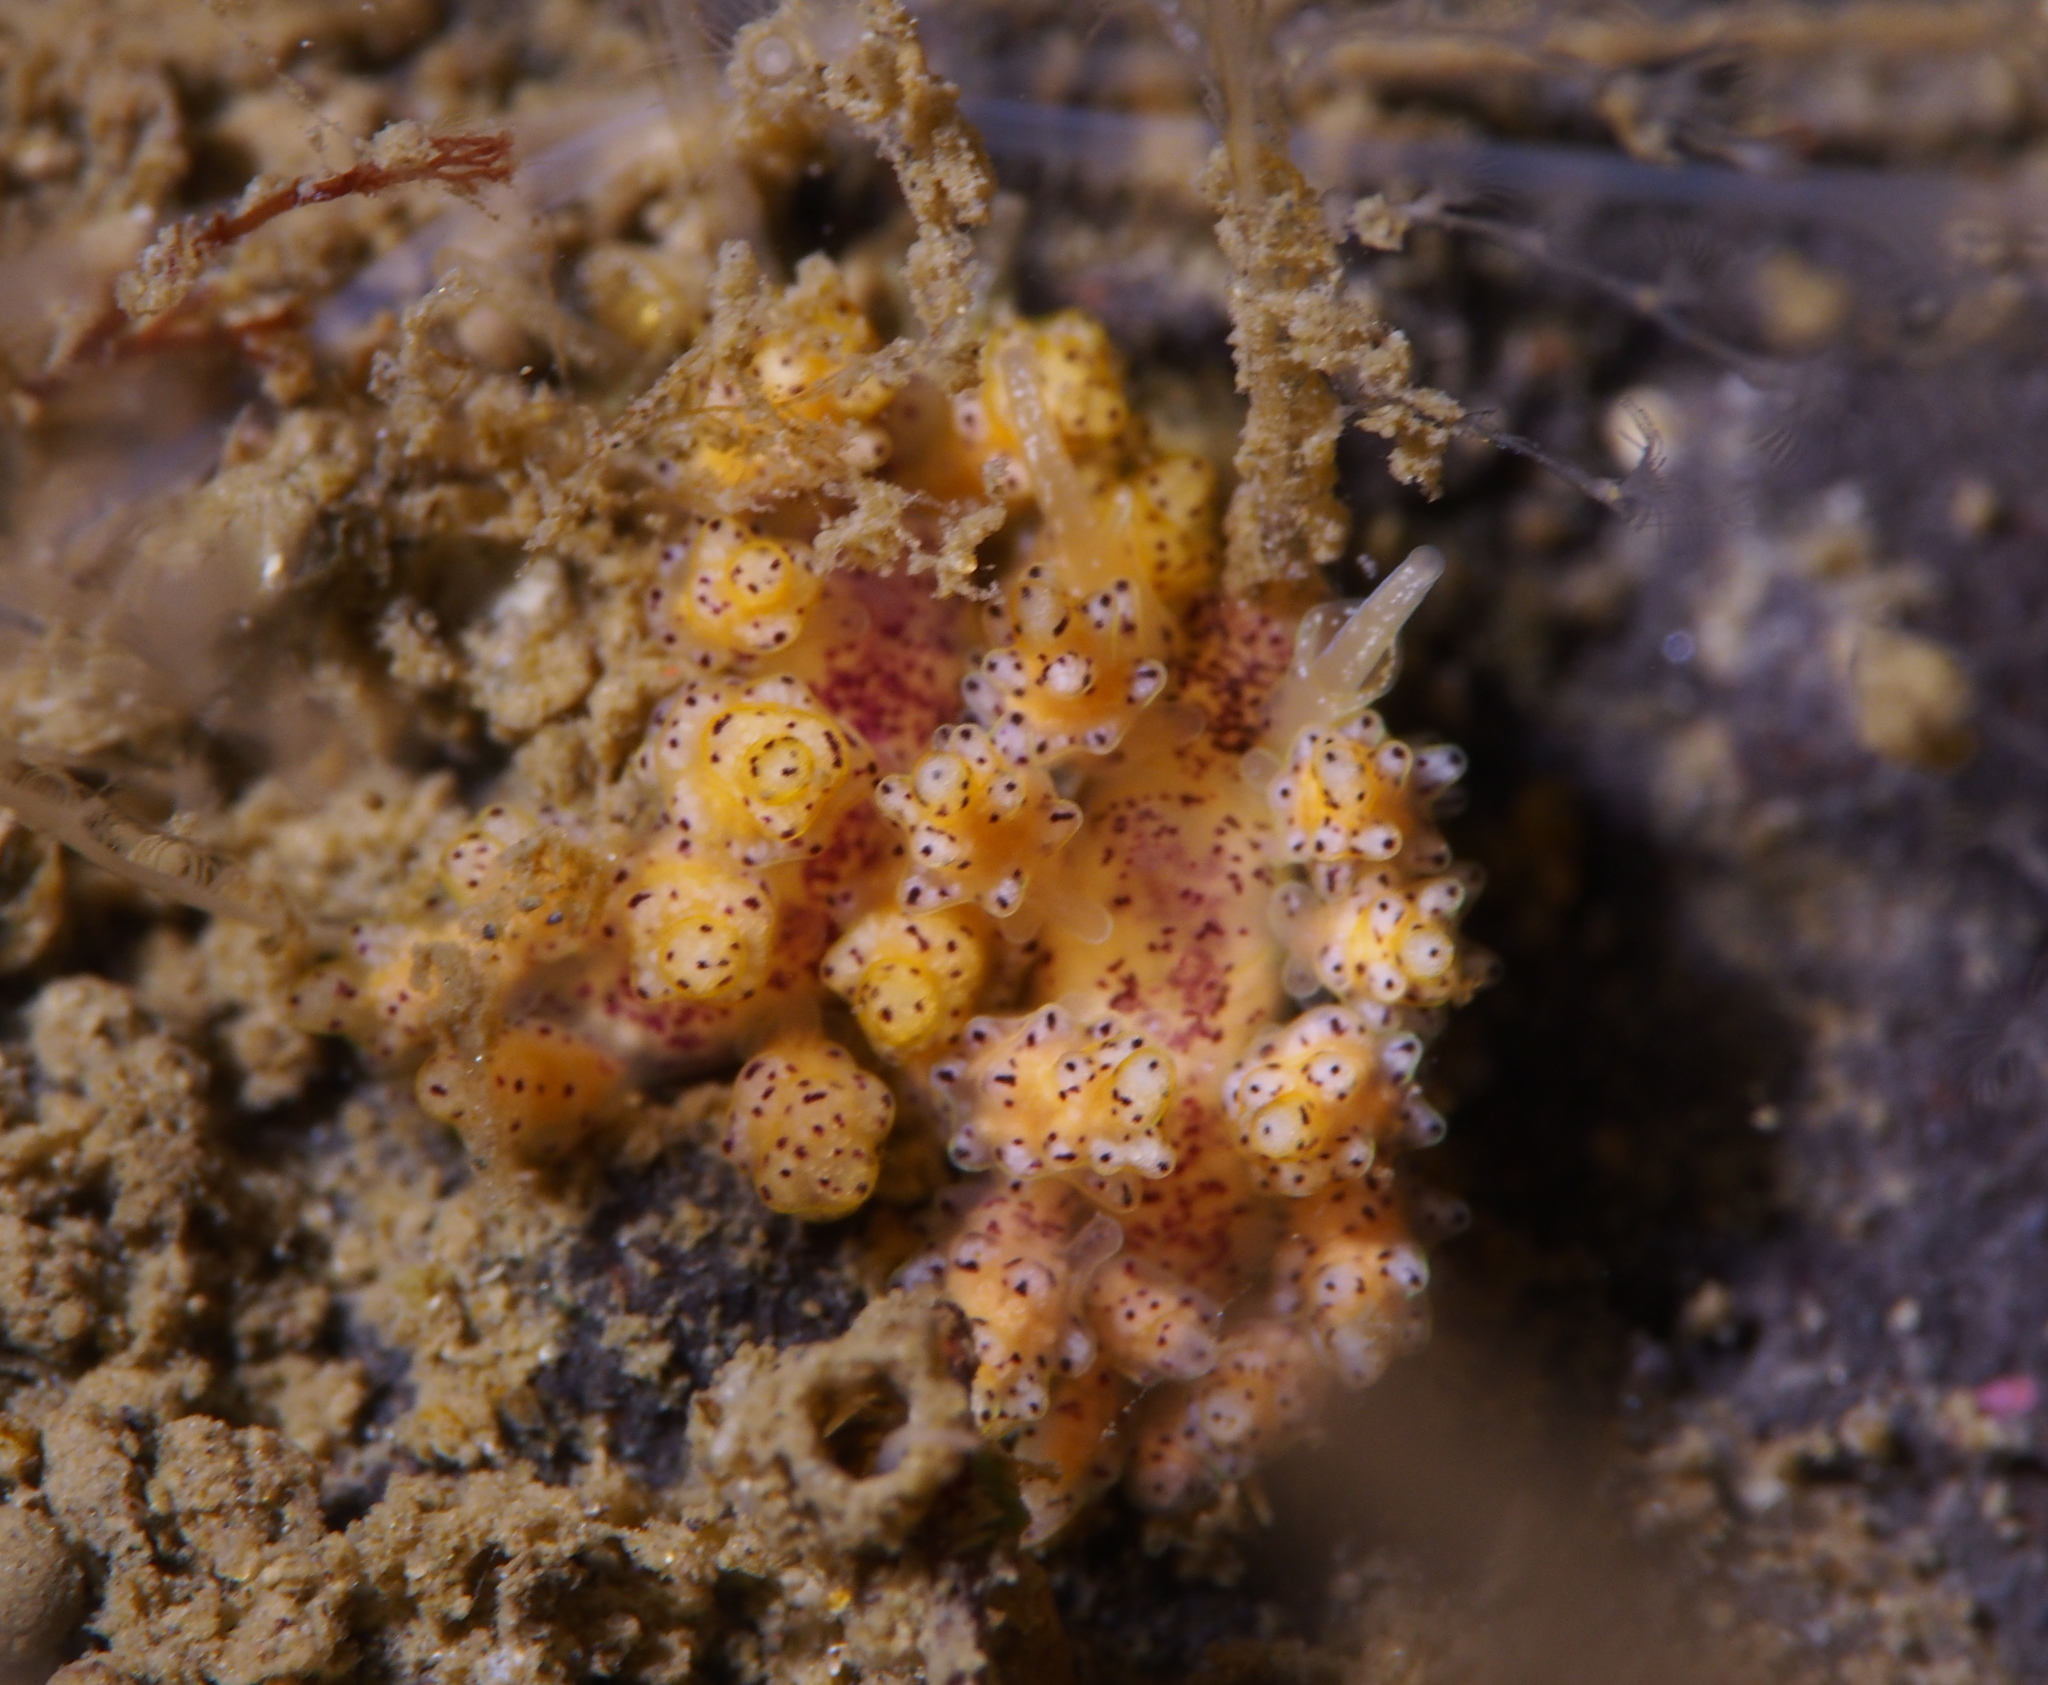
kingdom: Animalia
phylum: Mollusca
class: Gastropoda
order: Nudibranchia
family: Dotidae
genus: Doto
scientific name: Doto dunnei
